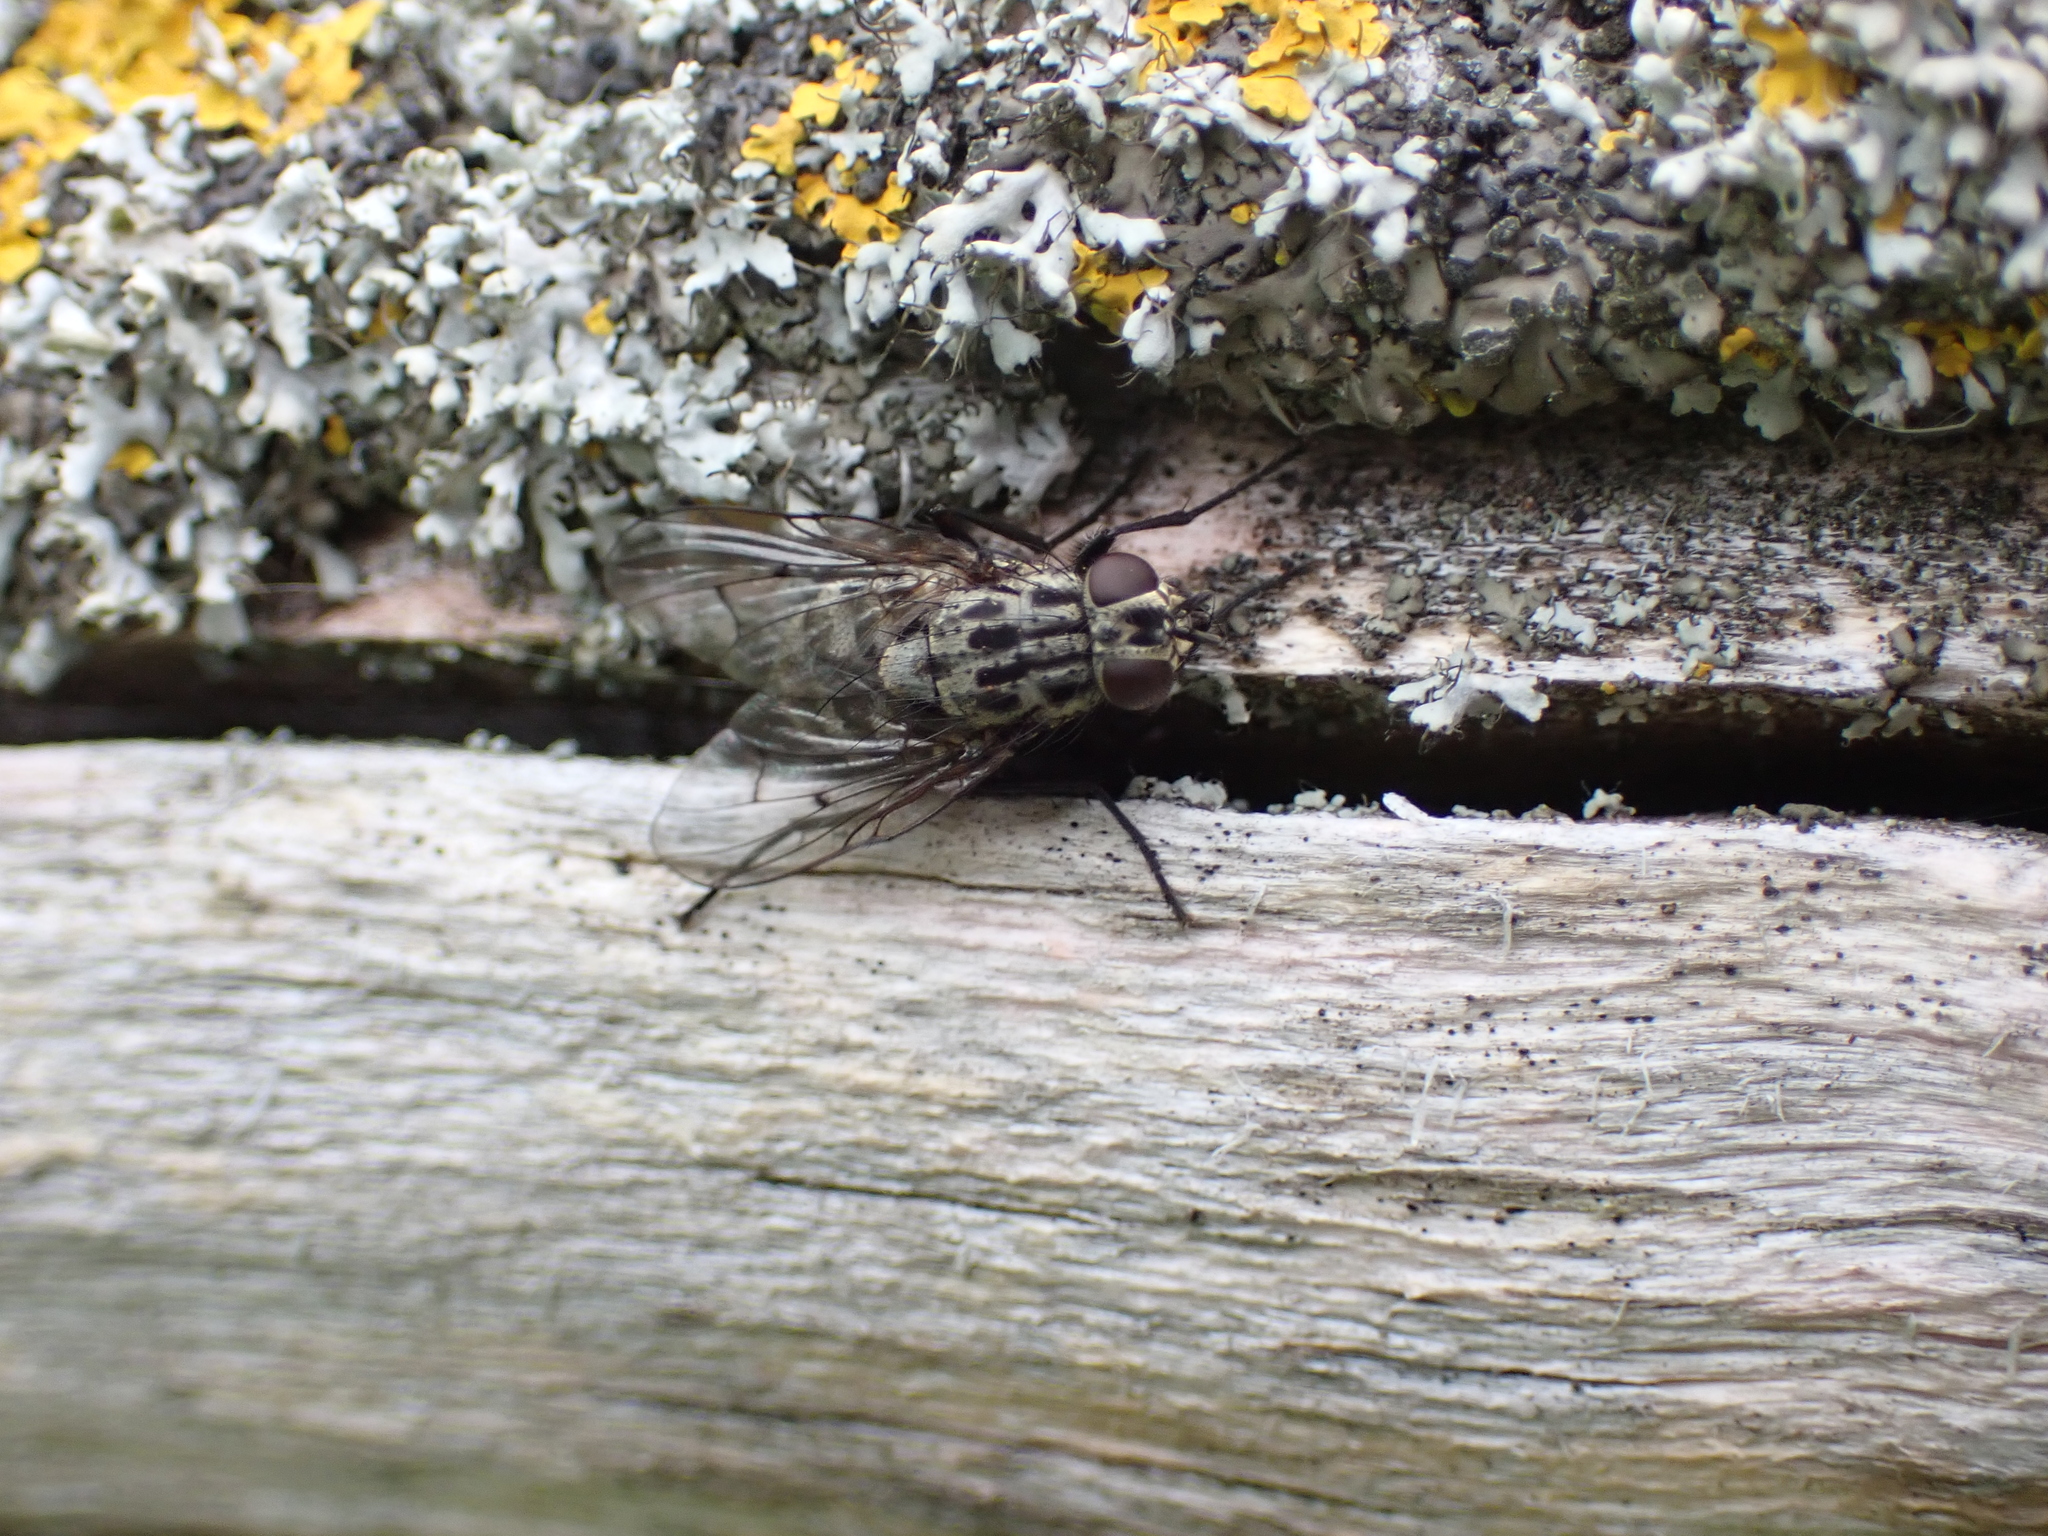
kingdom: Animalia
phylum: Arthropoda
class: Insecta
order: Diptera
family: Muscidae
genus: Phaonia
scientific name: Phaonia trimaculata
